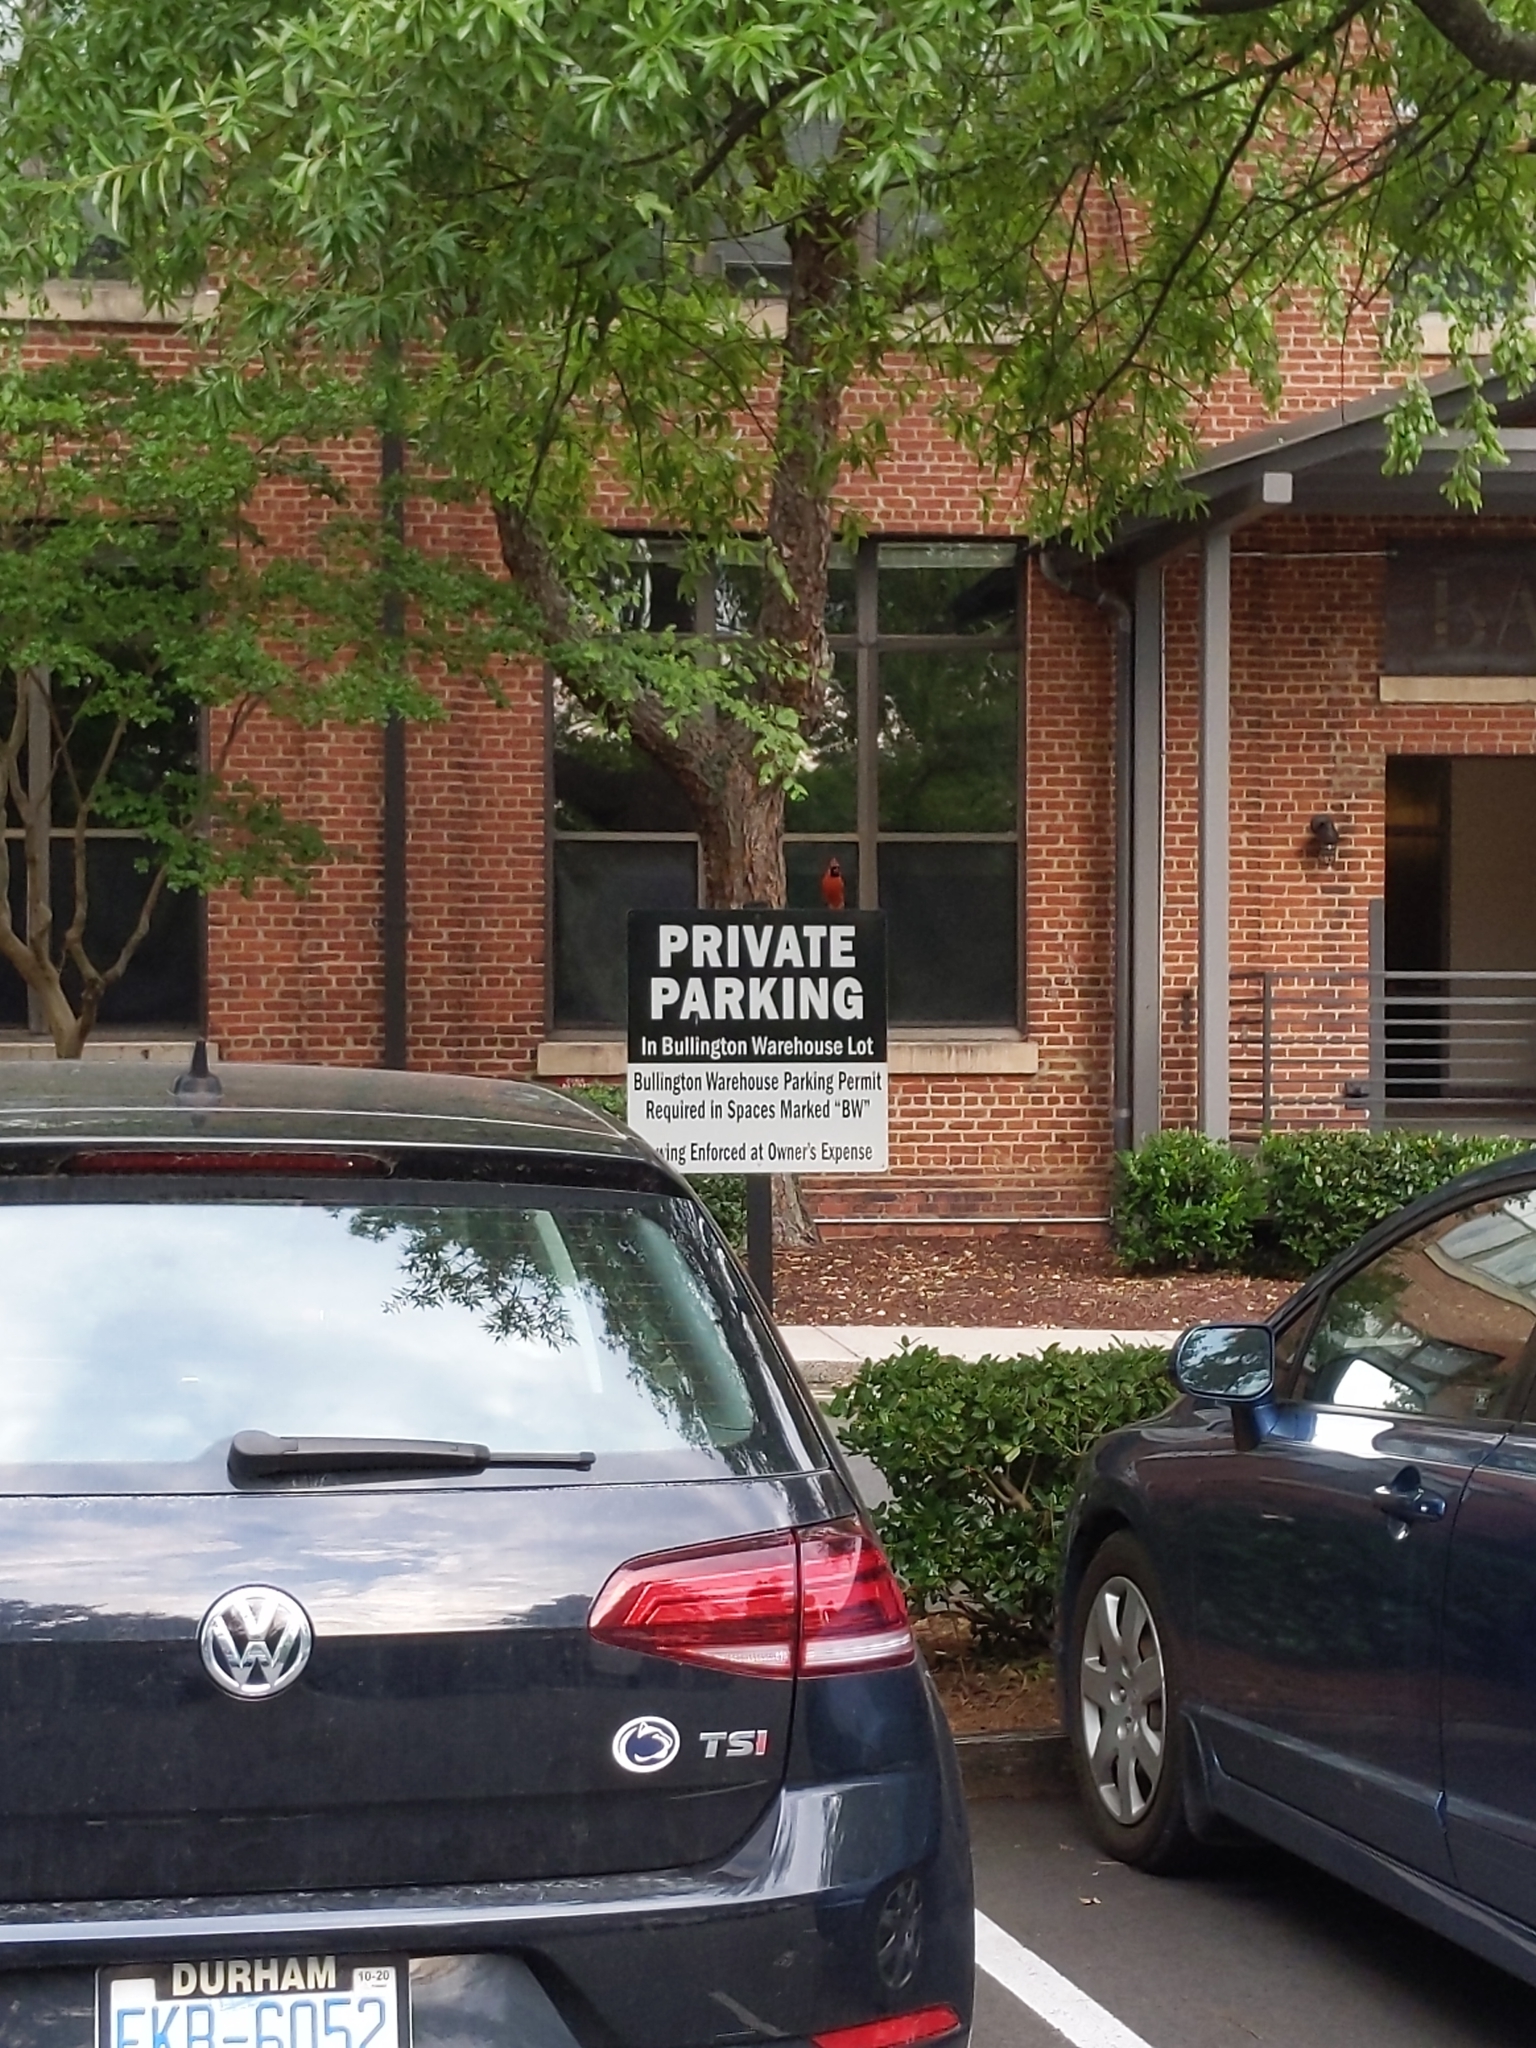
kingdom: Animalia
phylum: Chordata
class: Aves
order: Passeriformes
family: Cardinalidae
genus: Cardinalis
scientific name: Cardinalis cardinalis
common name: Northern cardinal
